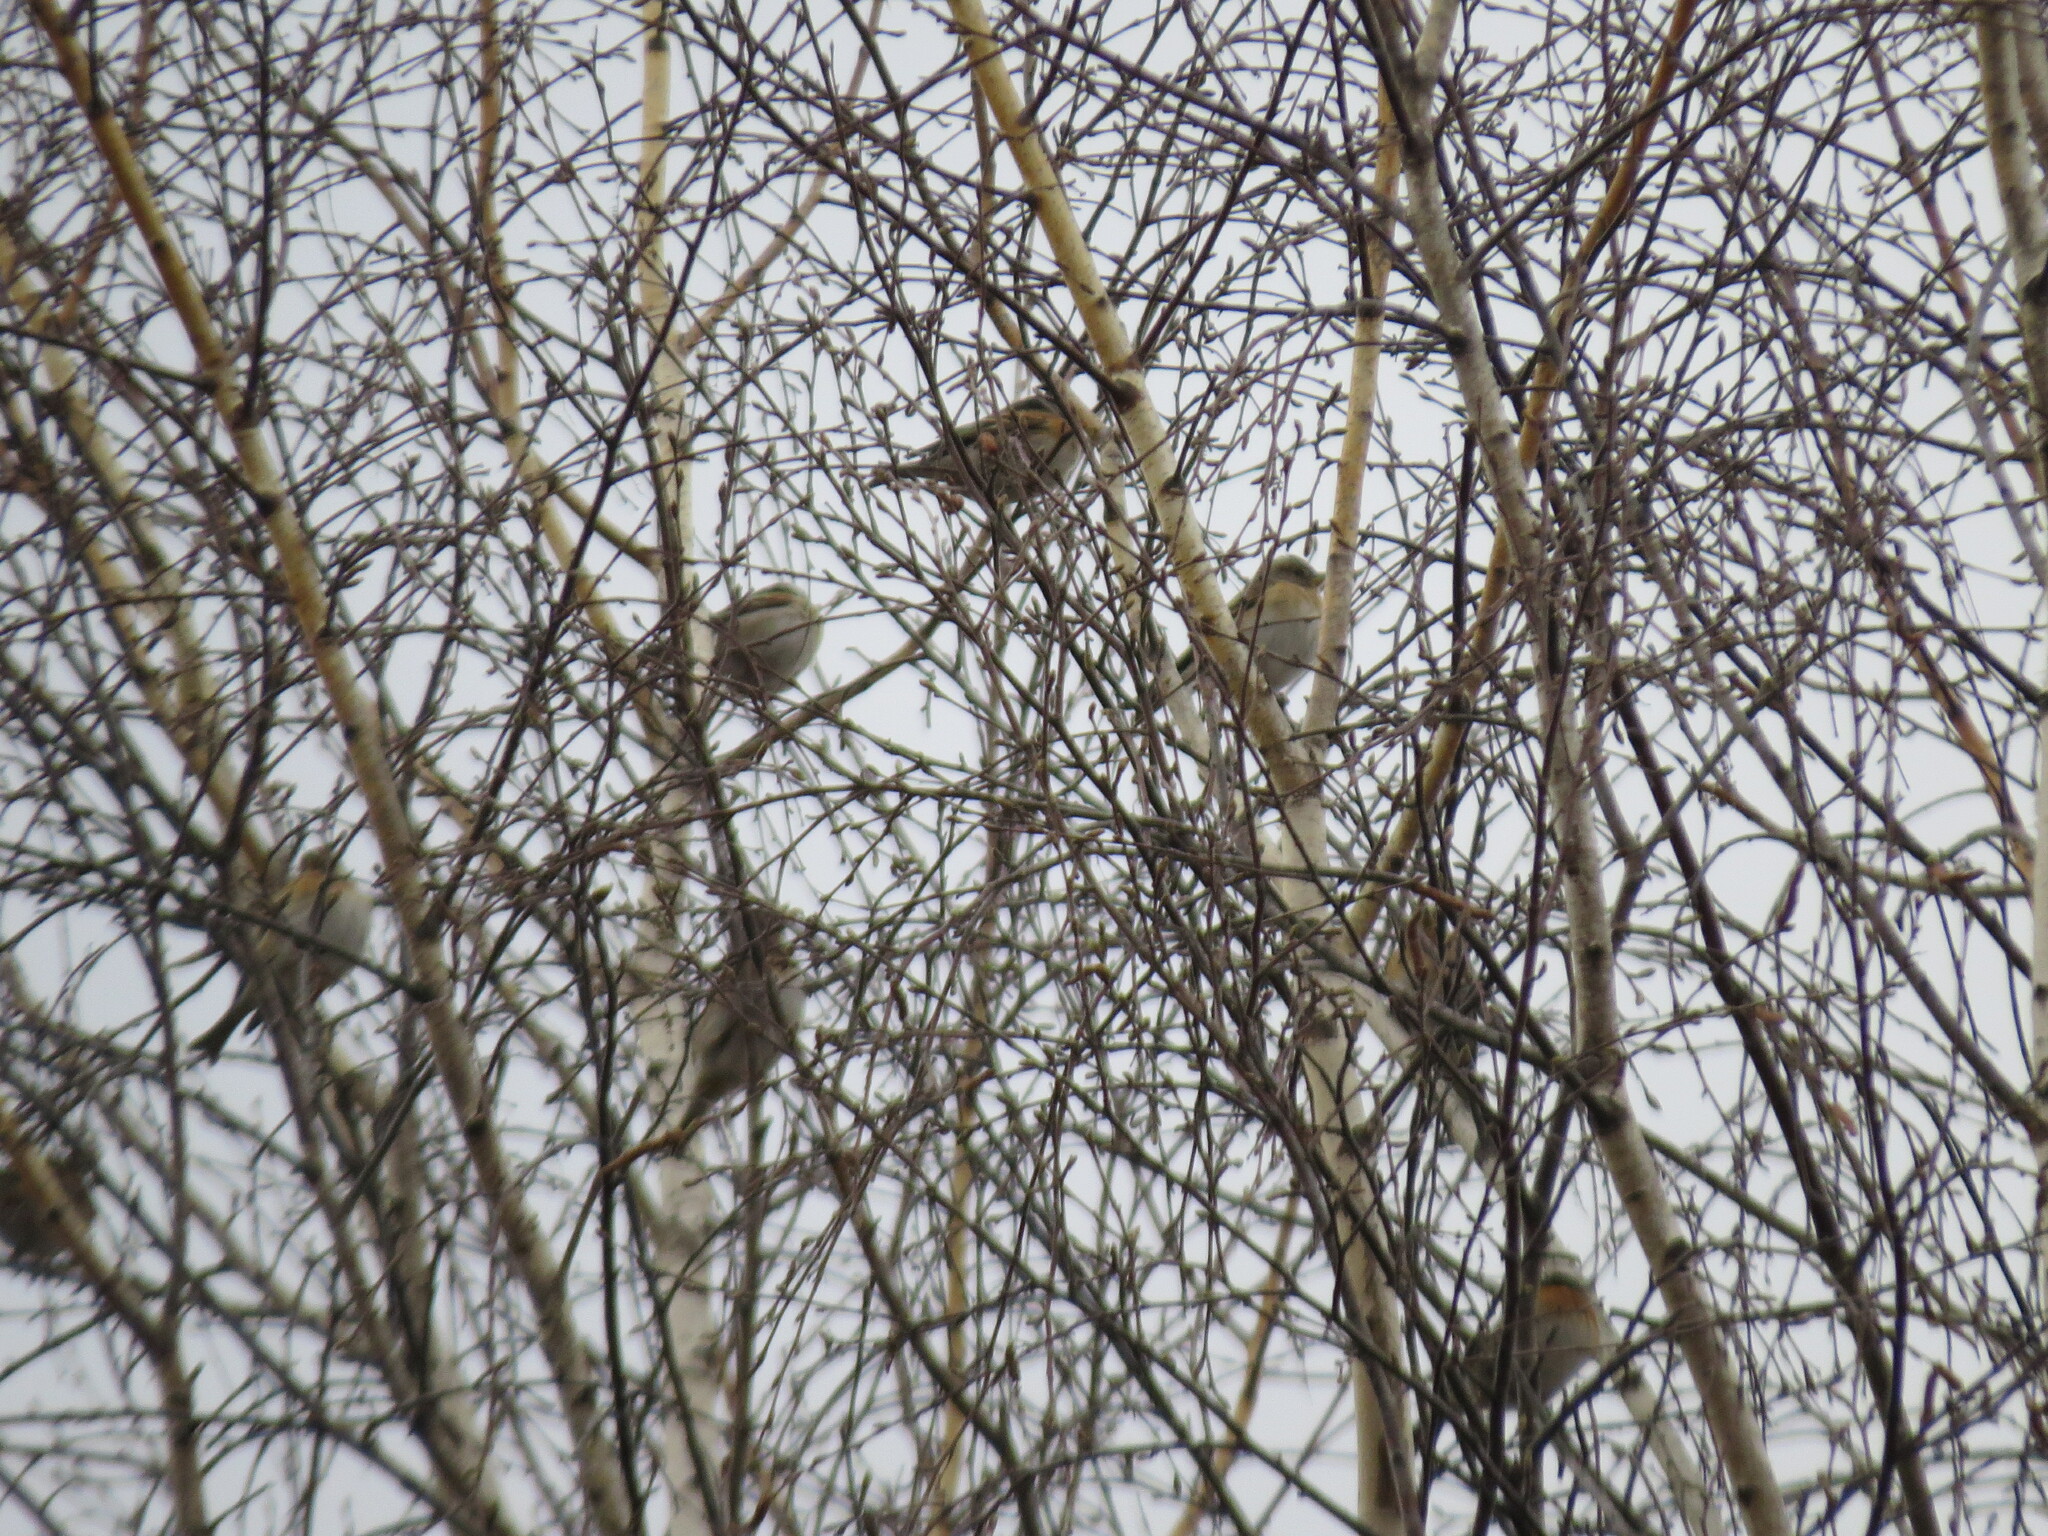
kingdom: Animalia
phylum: Chordata
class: Aves
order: Passeriformes
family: Fringillidae
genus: Fringilla
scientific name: Fringilla montifringilla
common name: Brambling
